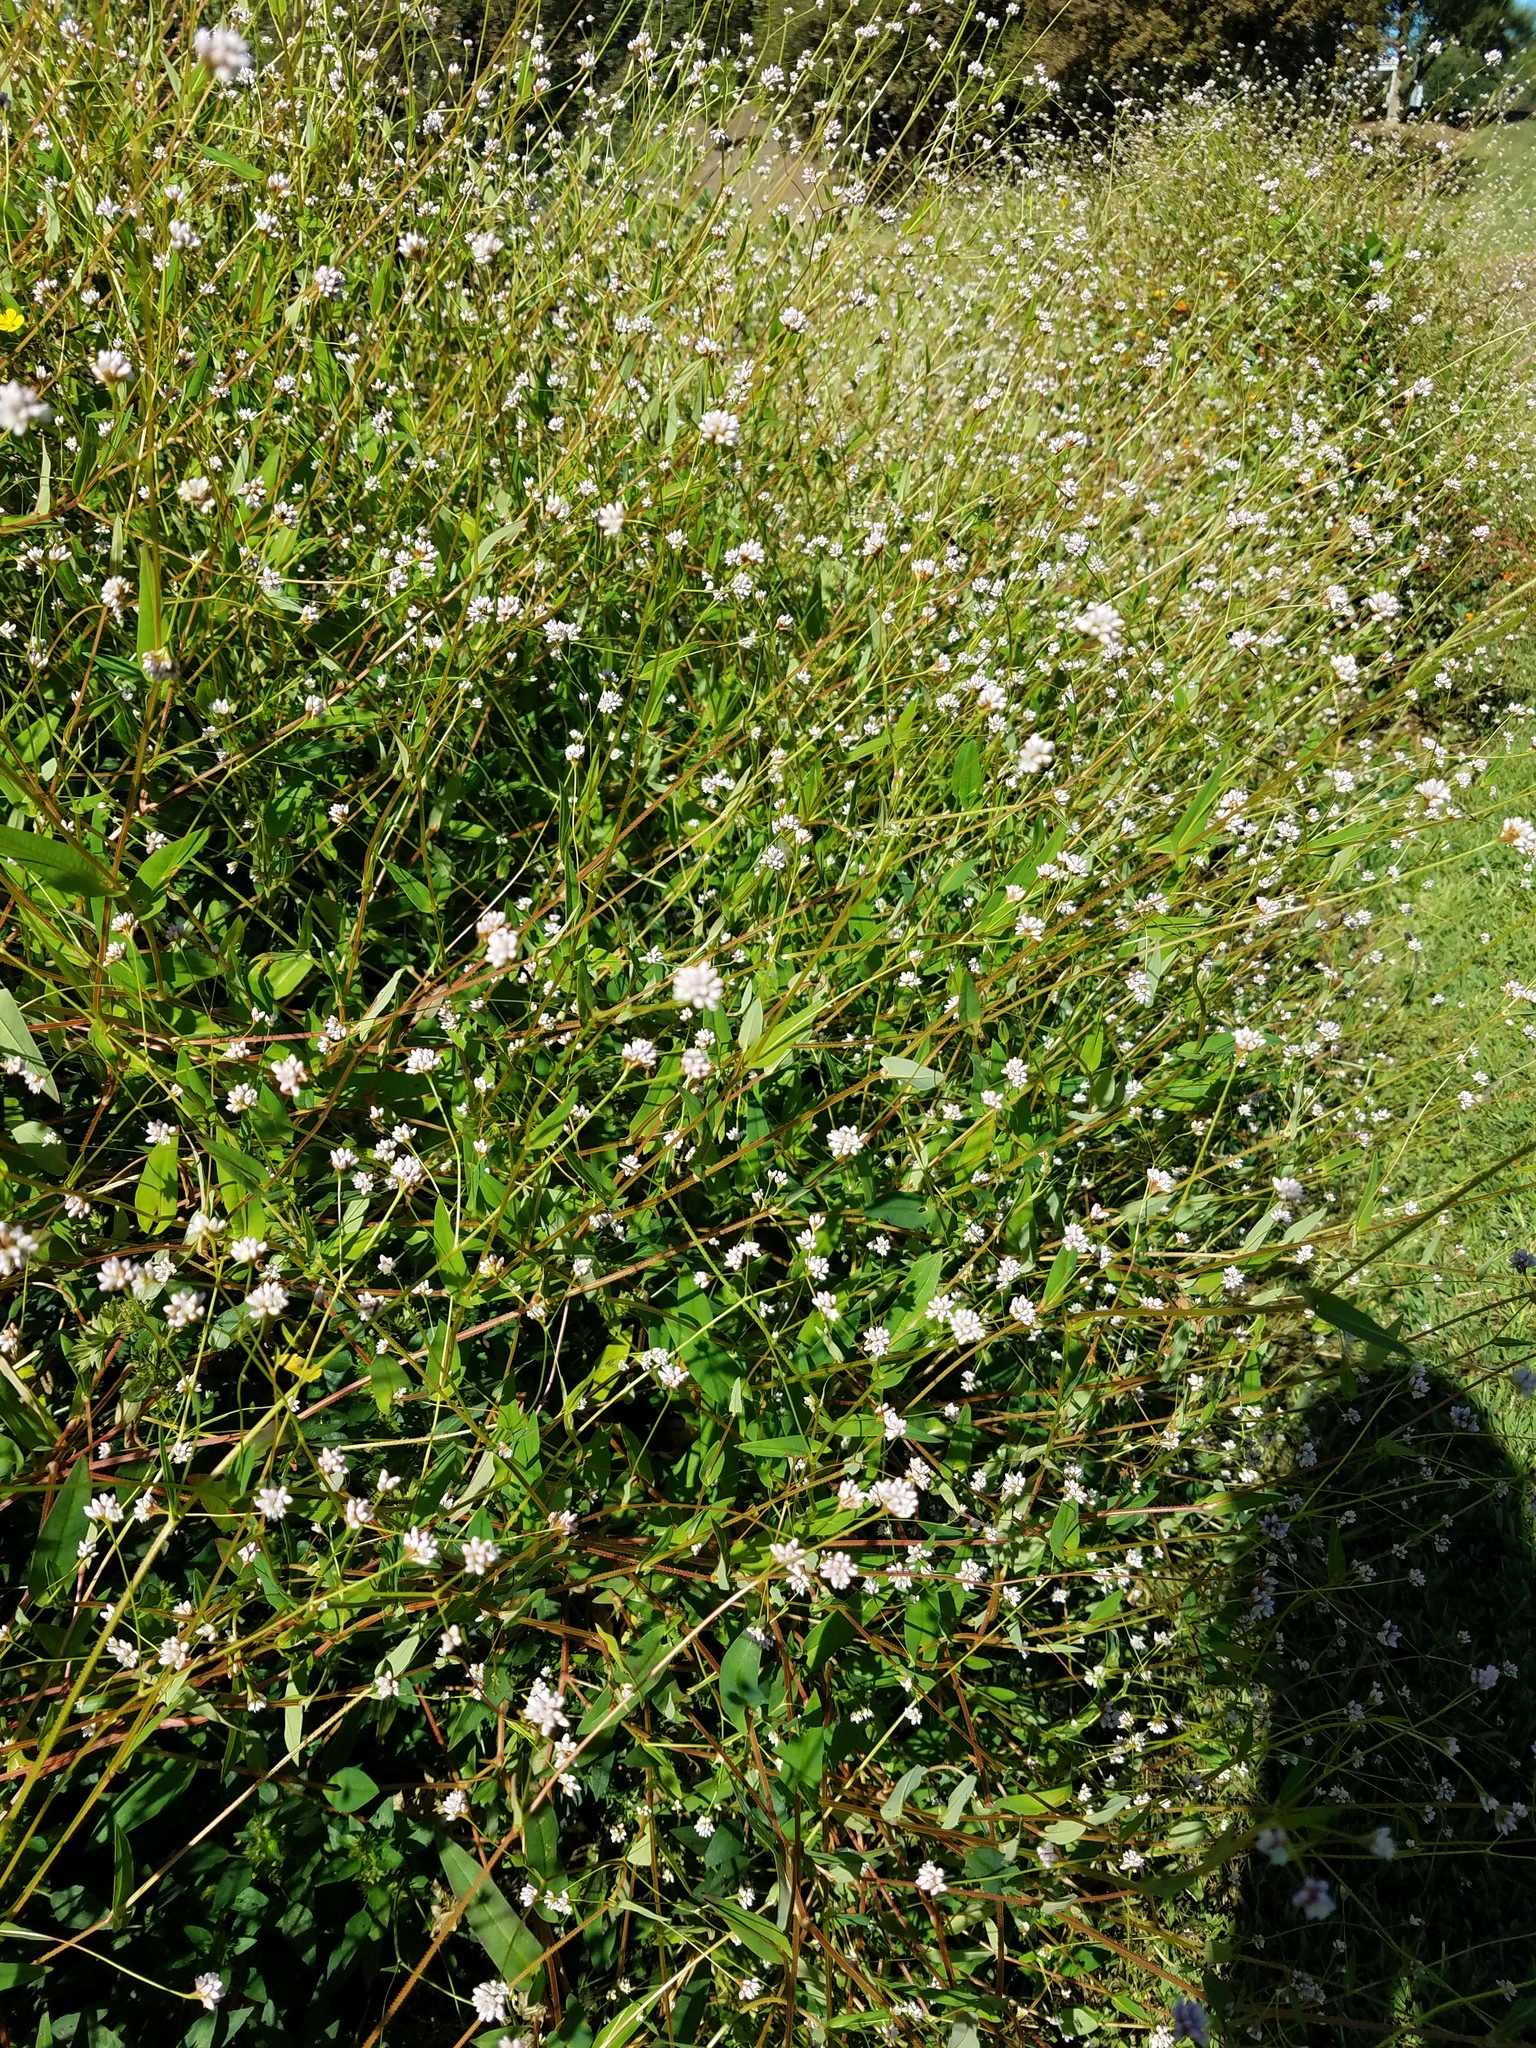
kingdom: Plantae
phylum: Tracheophyta
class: Magnoliopsida
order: Caryophyllales
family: Polygonaceae
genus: Persicaria
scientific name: Persicaria sagittata
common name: American tearthumb
